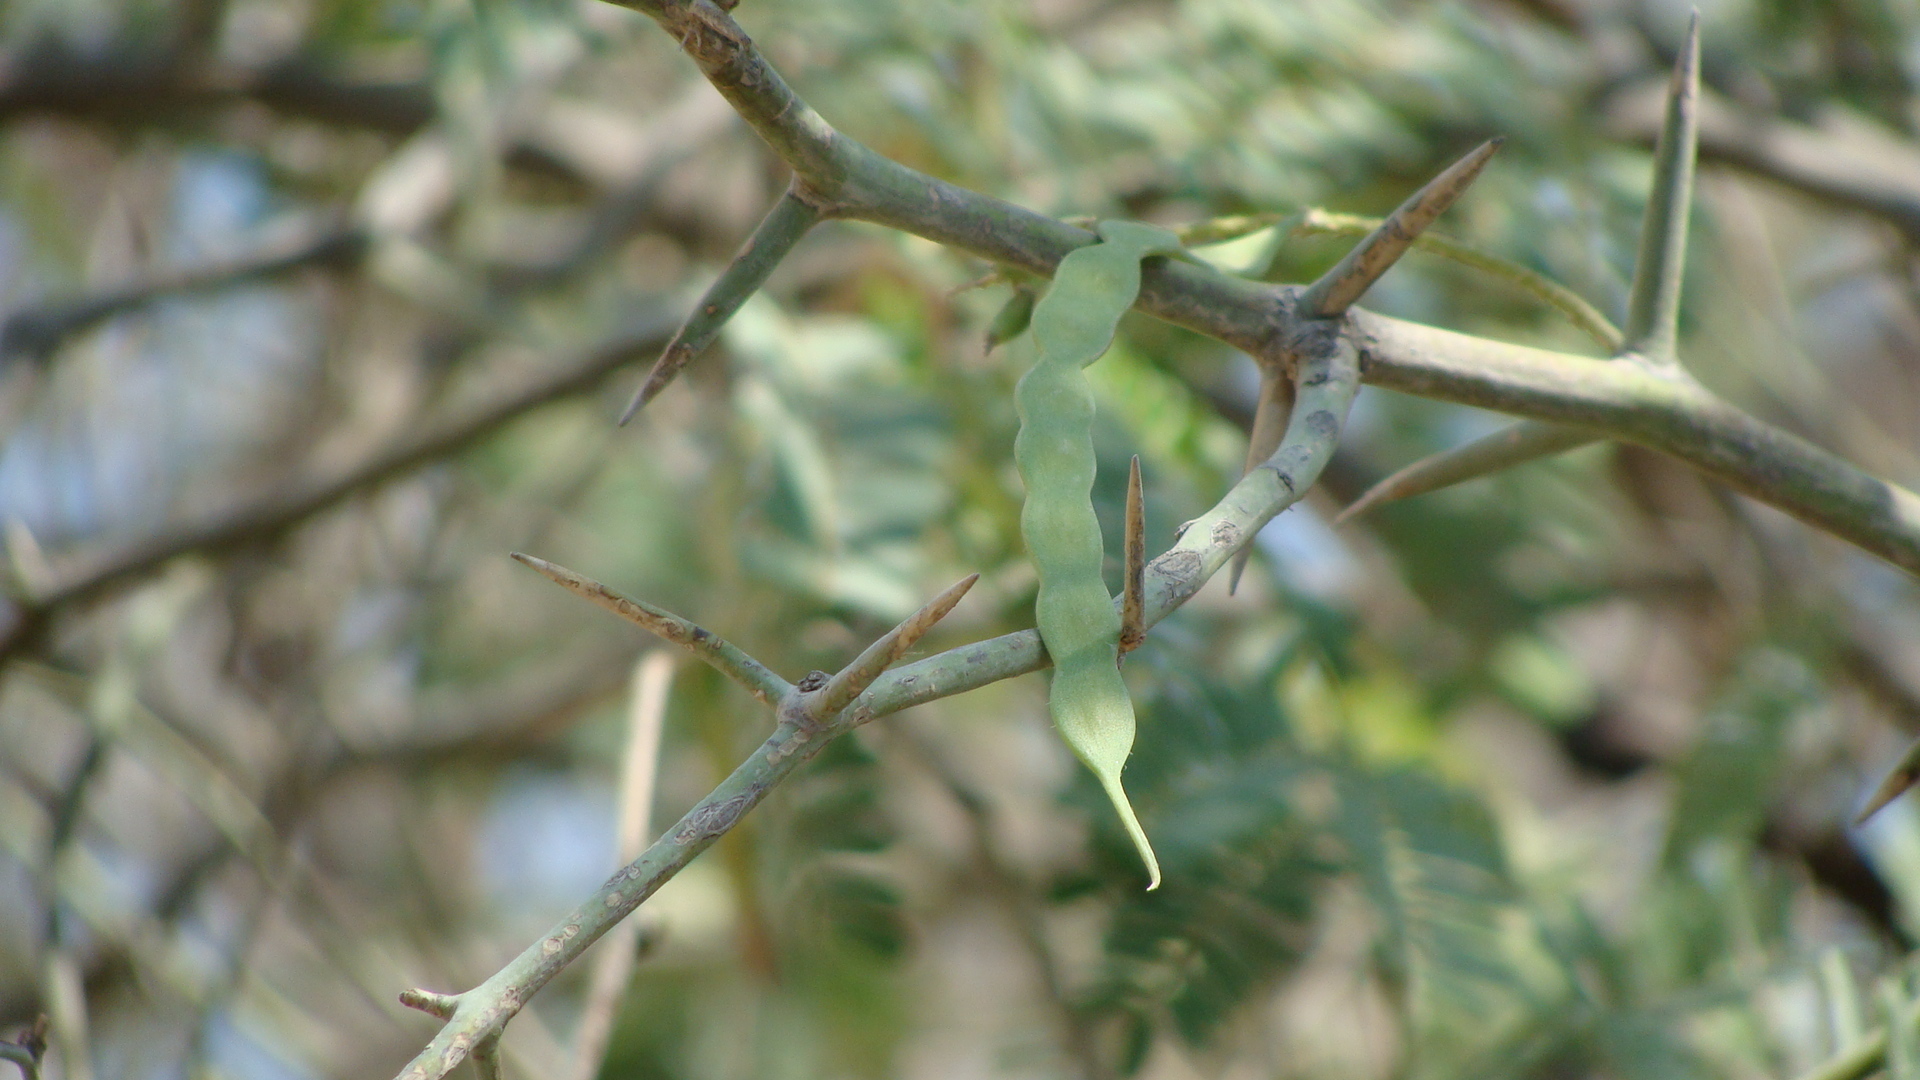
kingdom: Plantae
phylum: Tracheophyta
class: Magnoliopsida
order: Fabales
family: Fabaceae
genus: Prosopis
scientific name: Prosopis articulata
